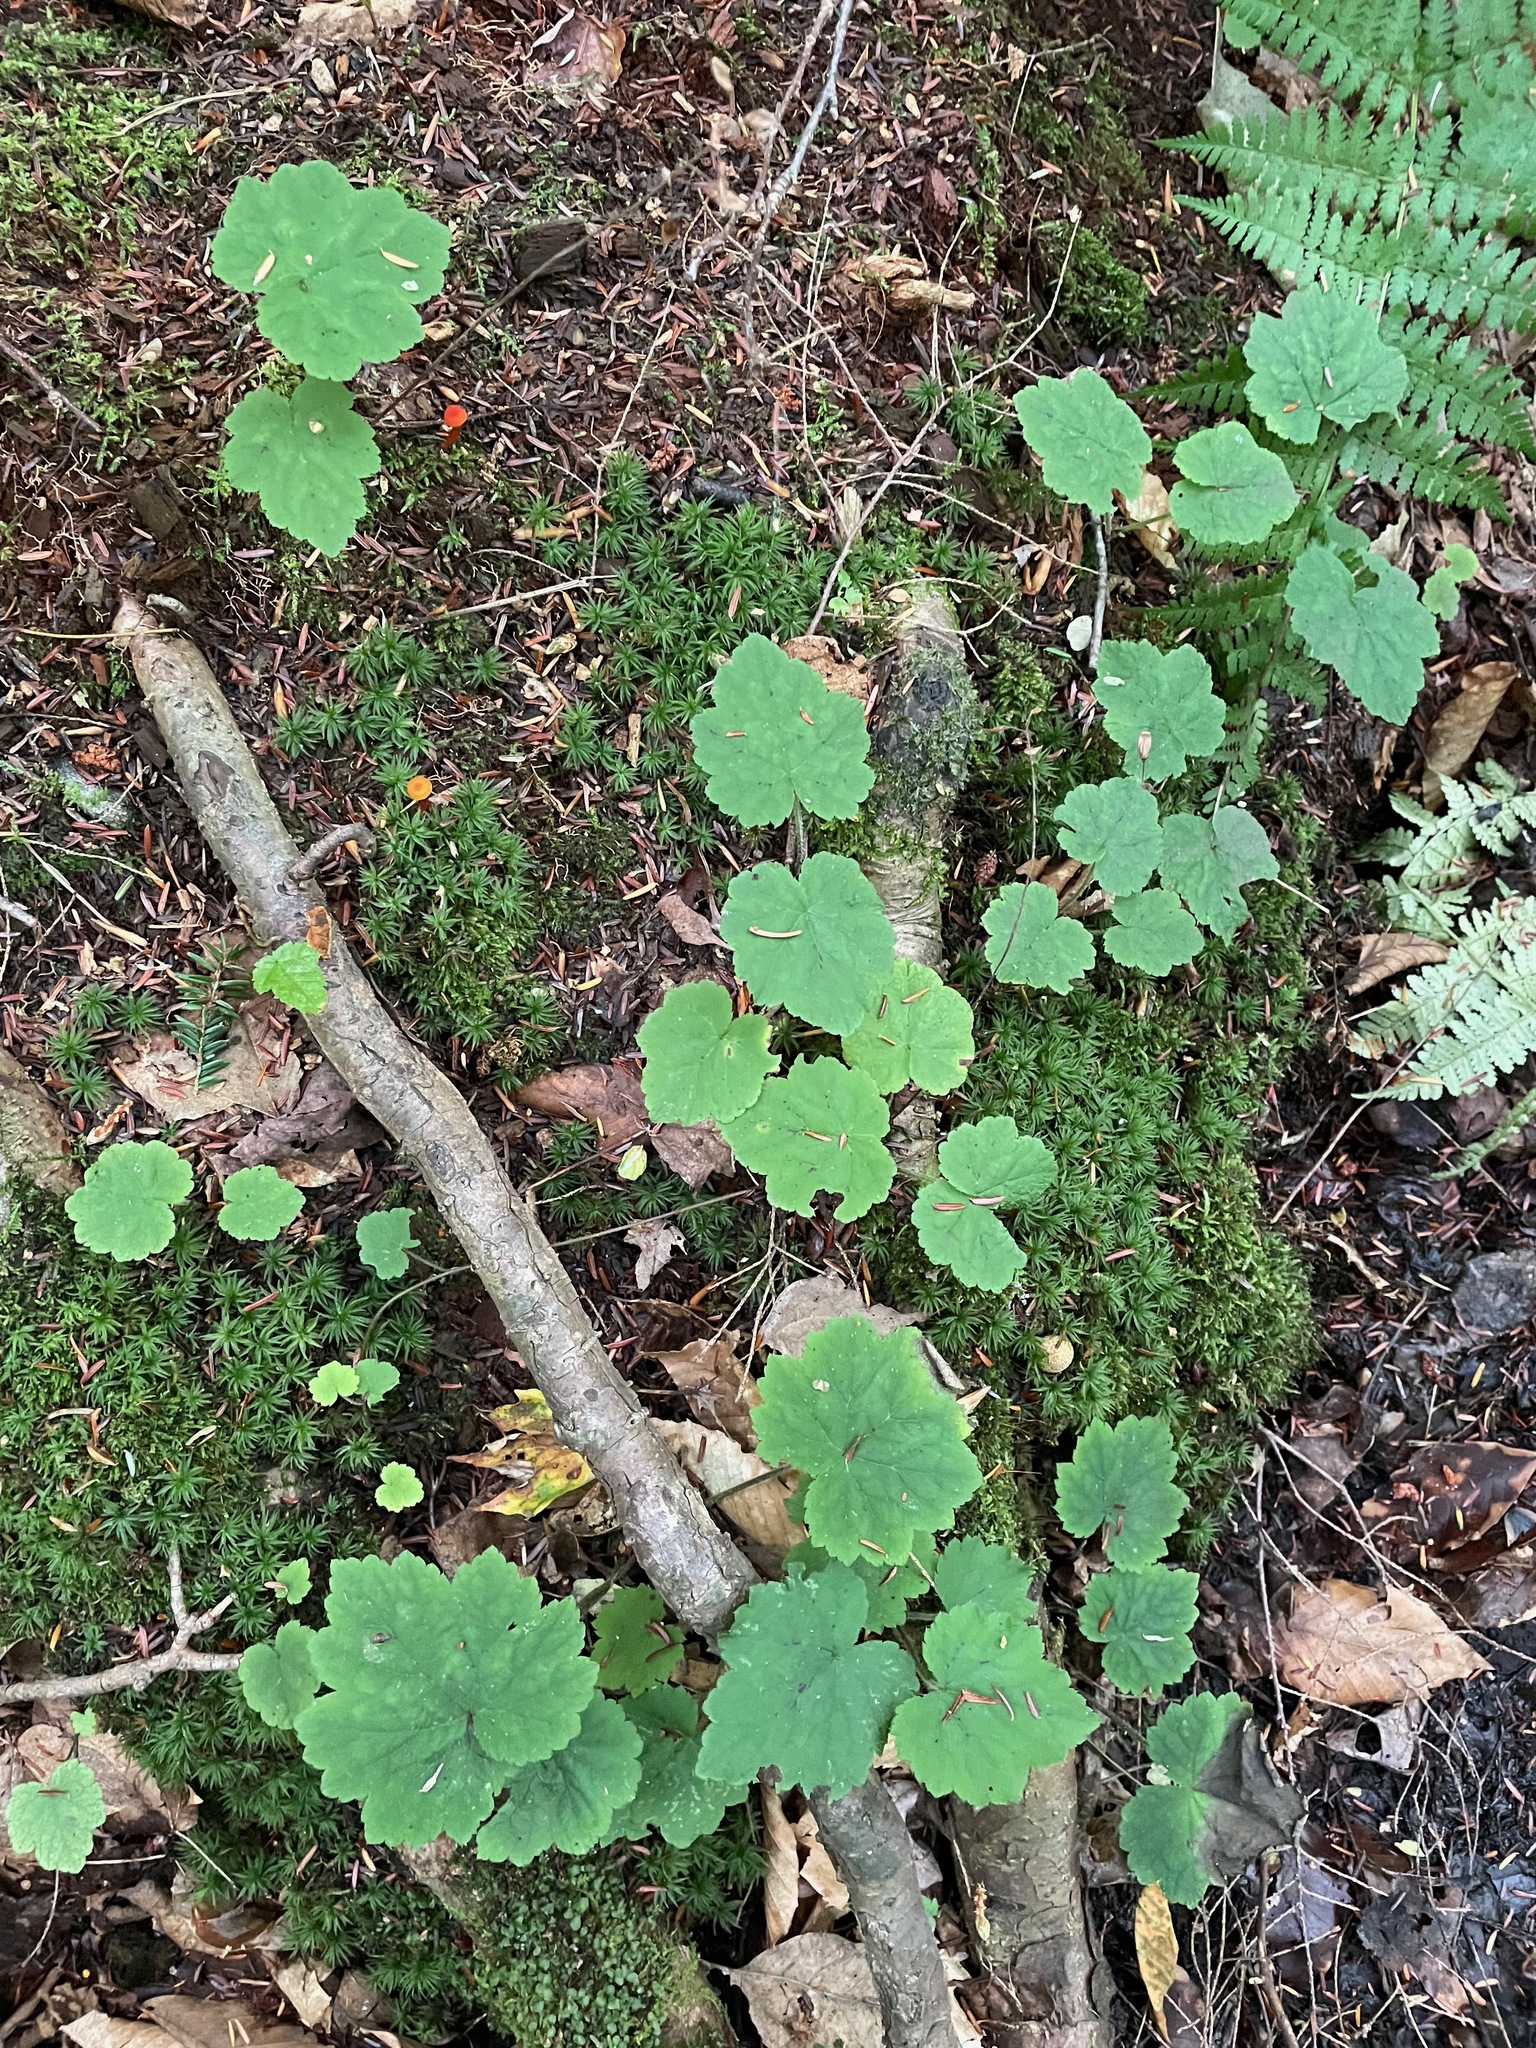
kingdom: Plantae
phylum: Tracheophyta
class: Magnoliopsida
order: Saxifragales
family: Saxifragaceae
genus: Tiarella
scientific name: Tiarella stolonifera
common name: Stoloniferous foamflower
